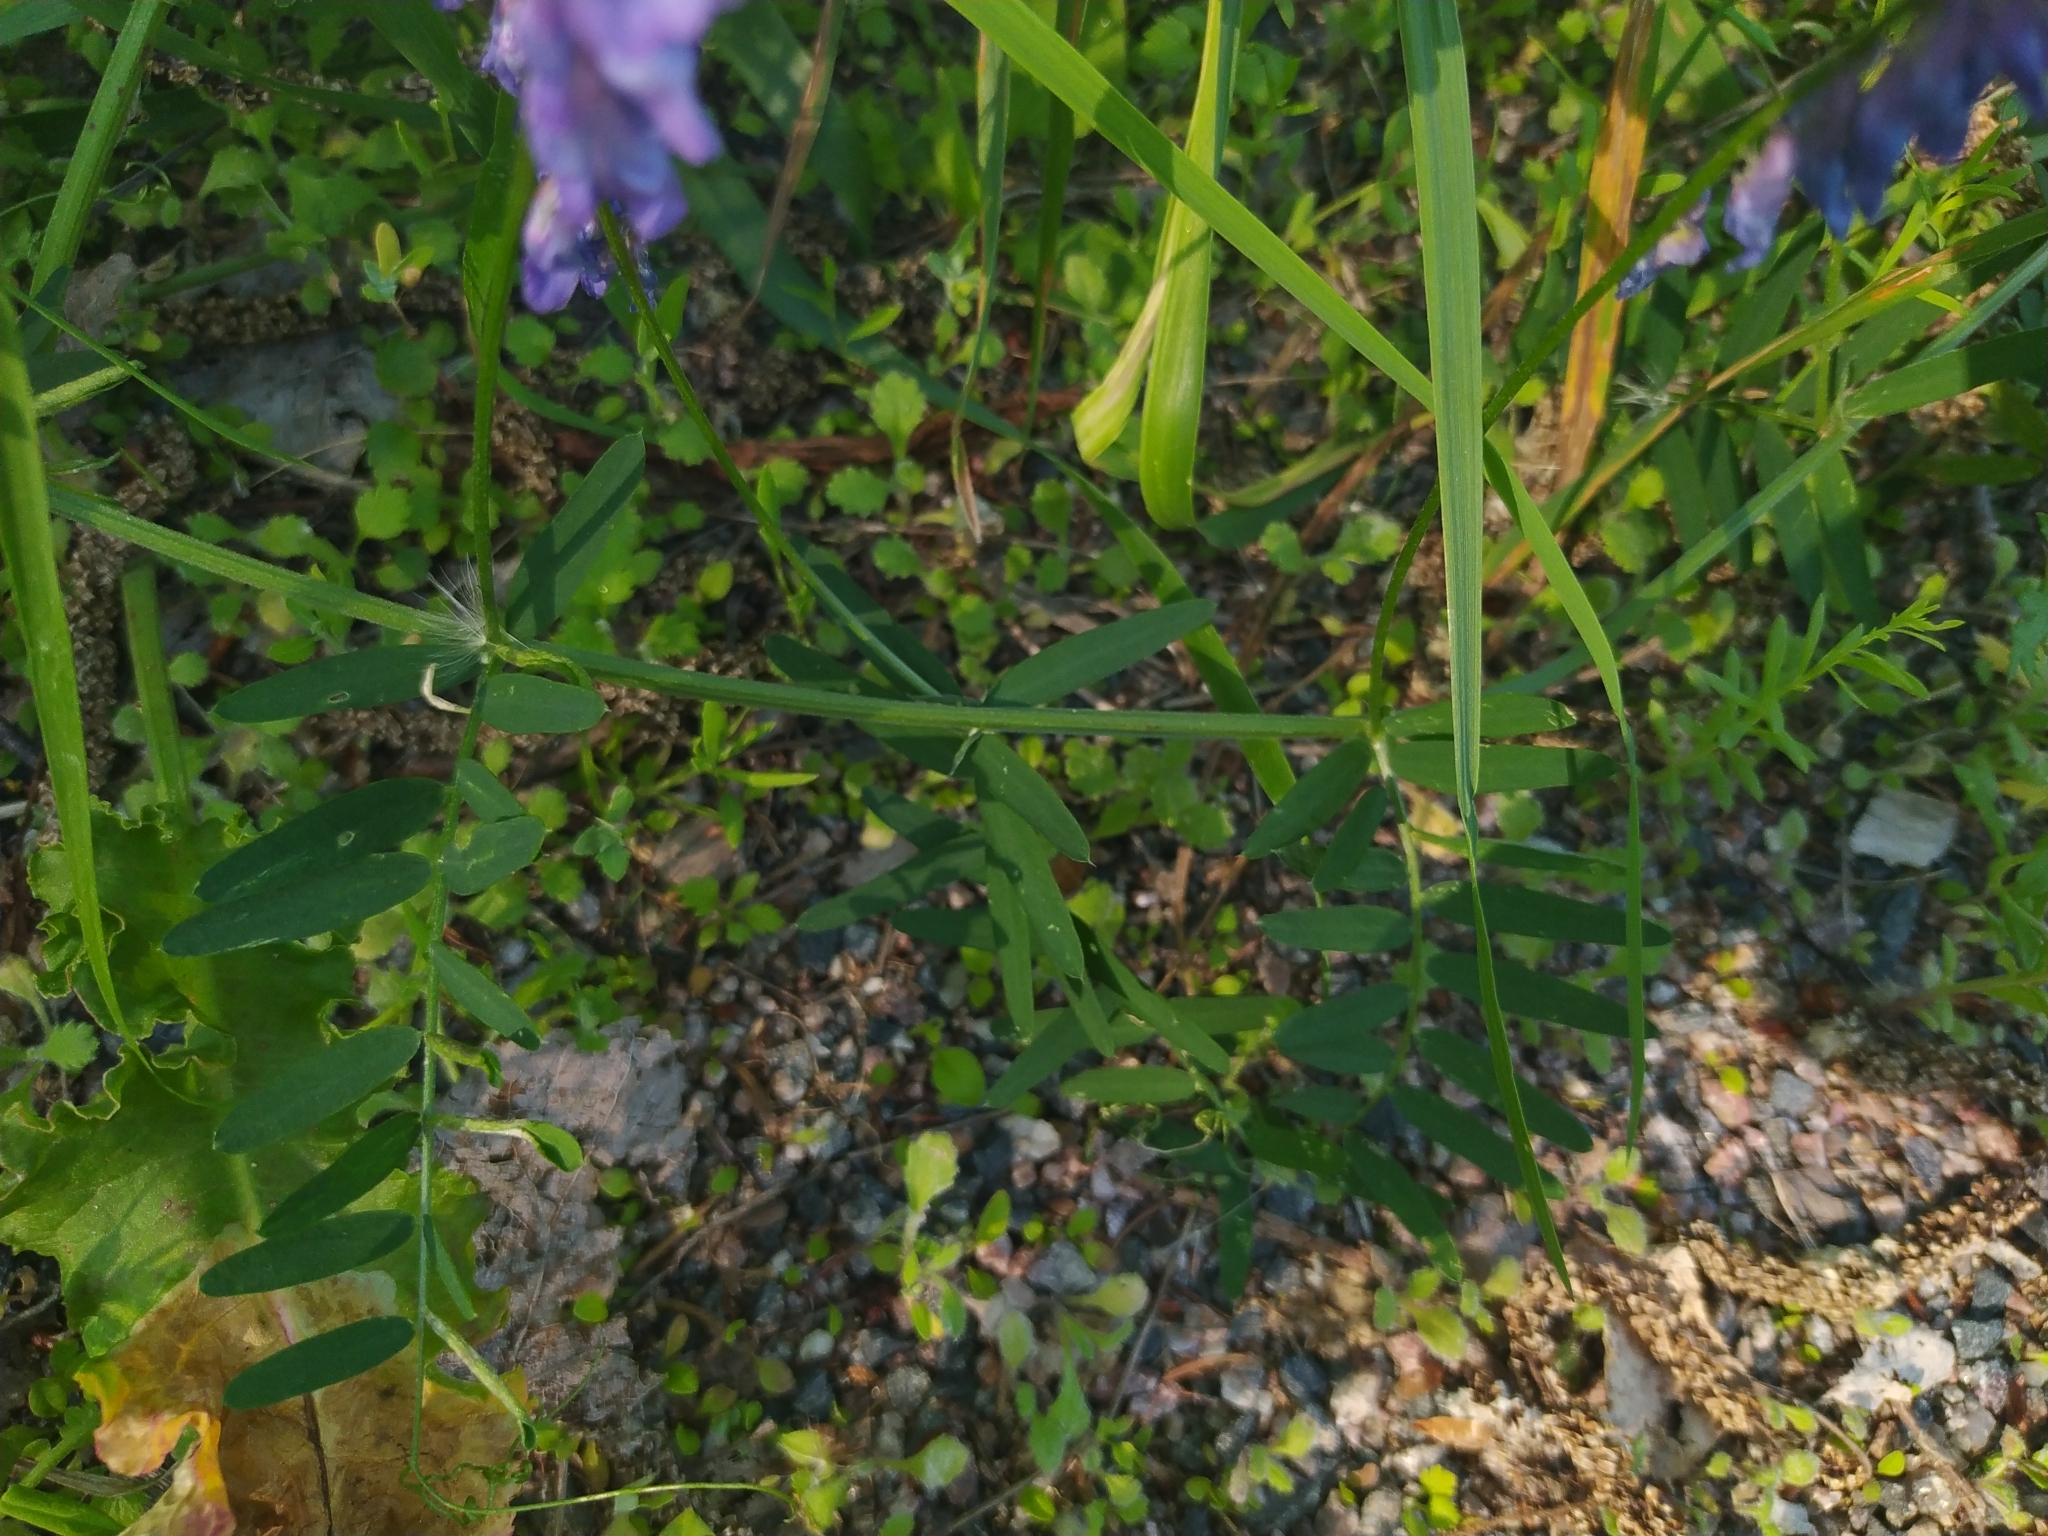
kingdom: Plantae
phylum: Tracheophyta
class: Magnoliopsida
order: Fabales
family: Fabaceae
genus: Vicia
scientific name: Vicia cracca
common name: Bird vetch
